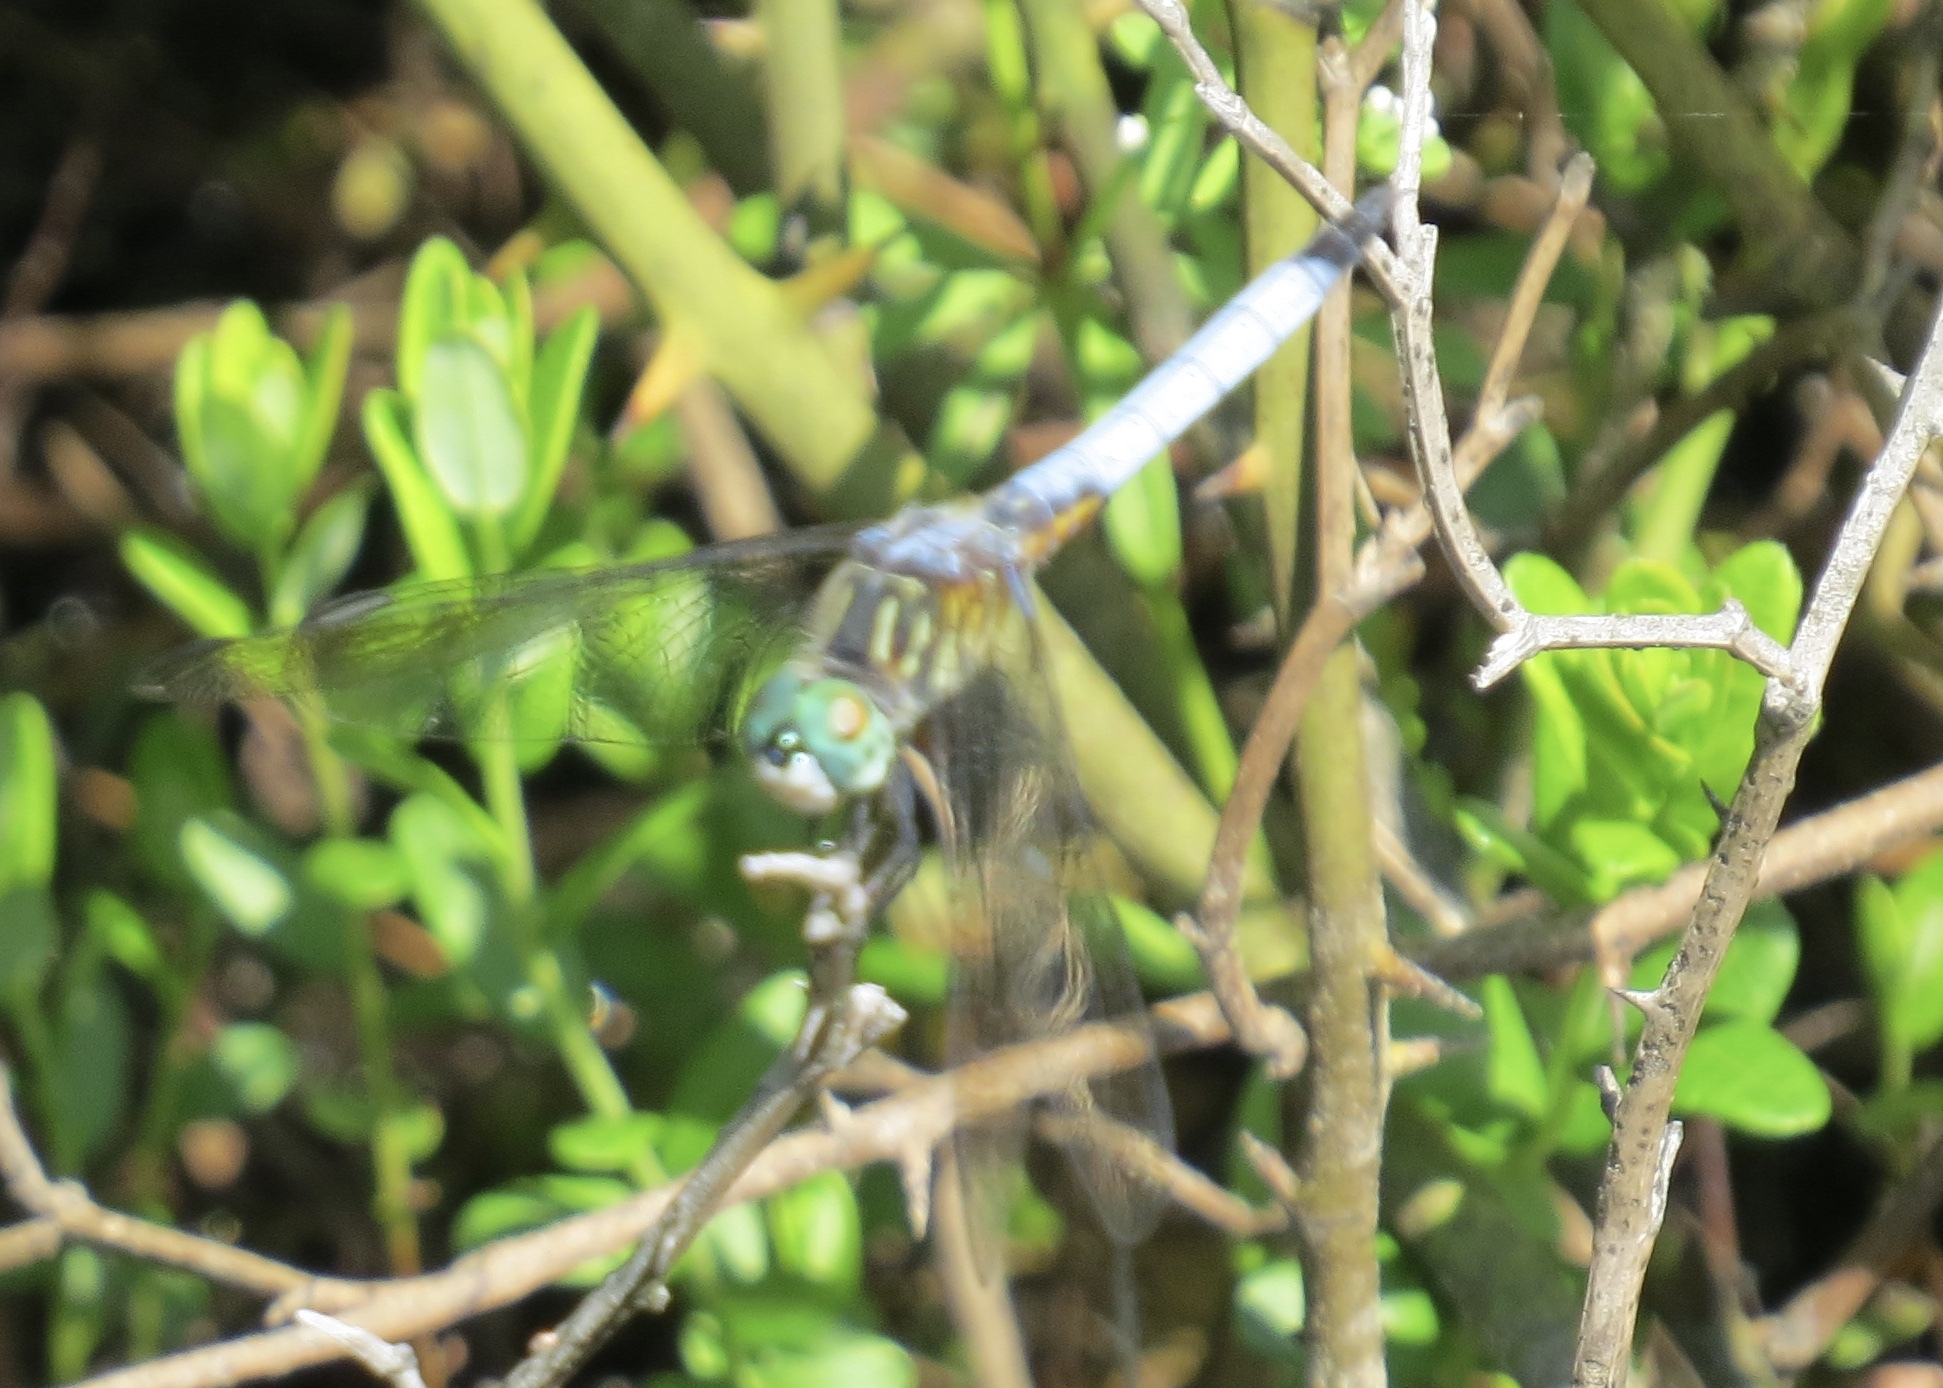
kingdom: Animalia
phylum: Arthropoda
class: Insecta
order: Odonata
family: Libellulidae
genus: Pachydiplax
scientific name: Pachydiplax longipennis
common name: Blue dasher
